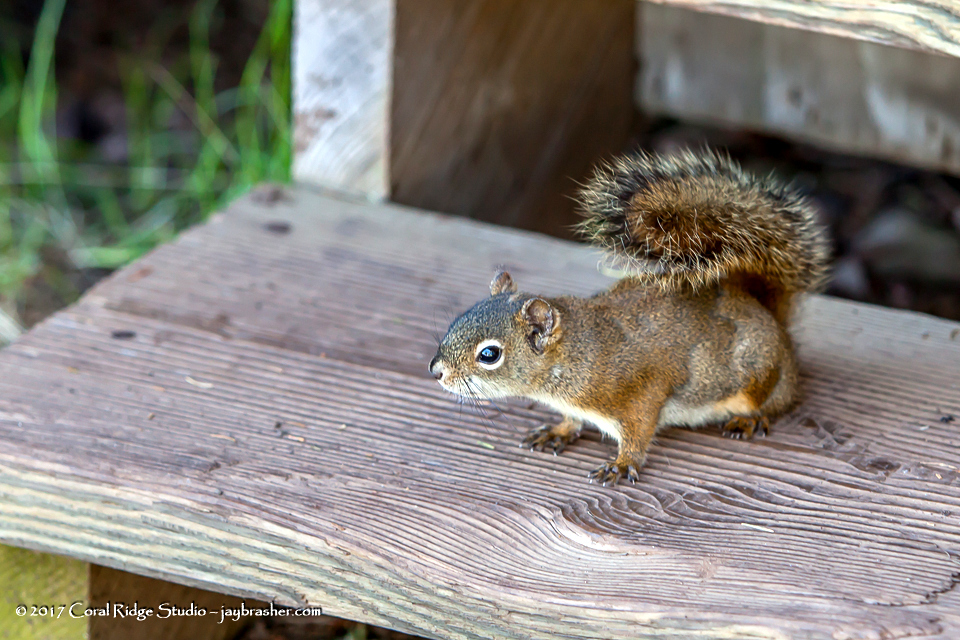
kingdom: Animalia
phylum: Chordata
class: Mammalia
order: Rodentia
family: Sciuridae
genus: Tamiasciurus
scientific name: Tamiasciurus hudsonicus
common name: Red squirrel
